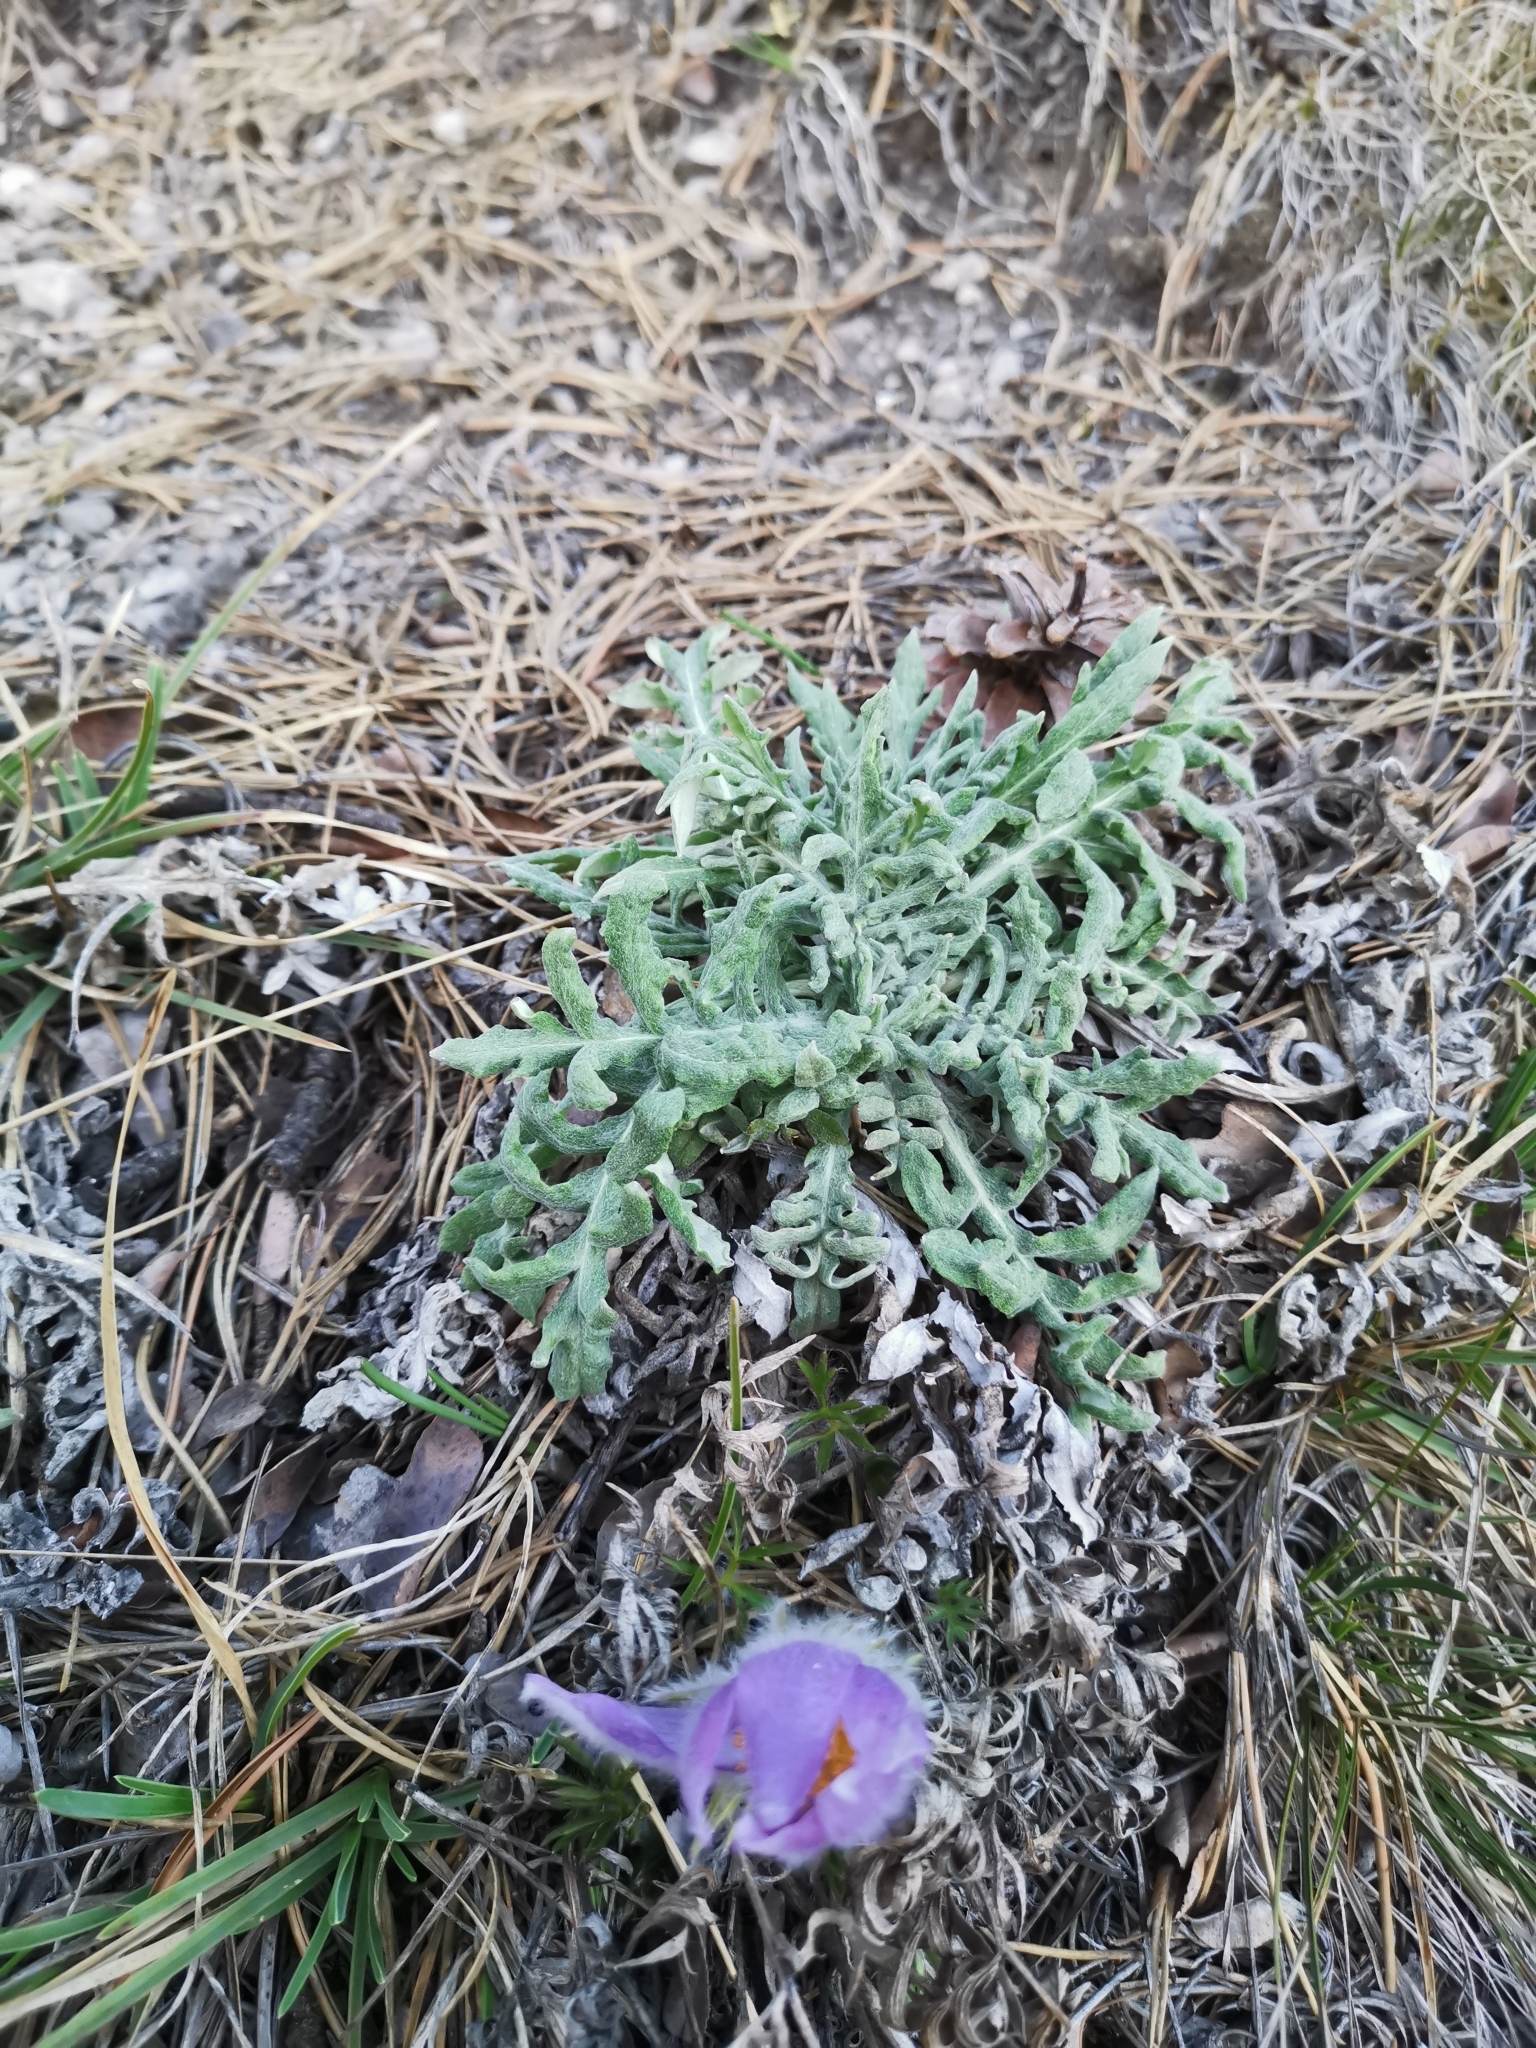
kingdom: Plantae
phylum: Tracheophyta
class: Magnoliopsida
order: Asterales
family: Asteraceae
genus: Jurinea
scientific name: Jurinea mollis
